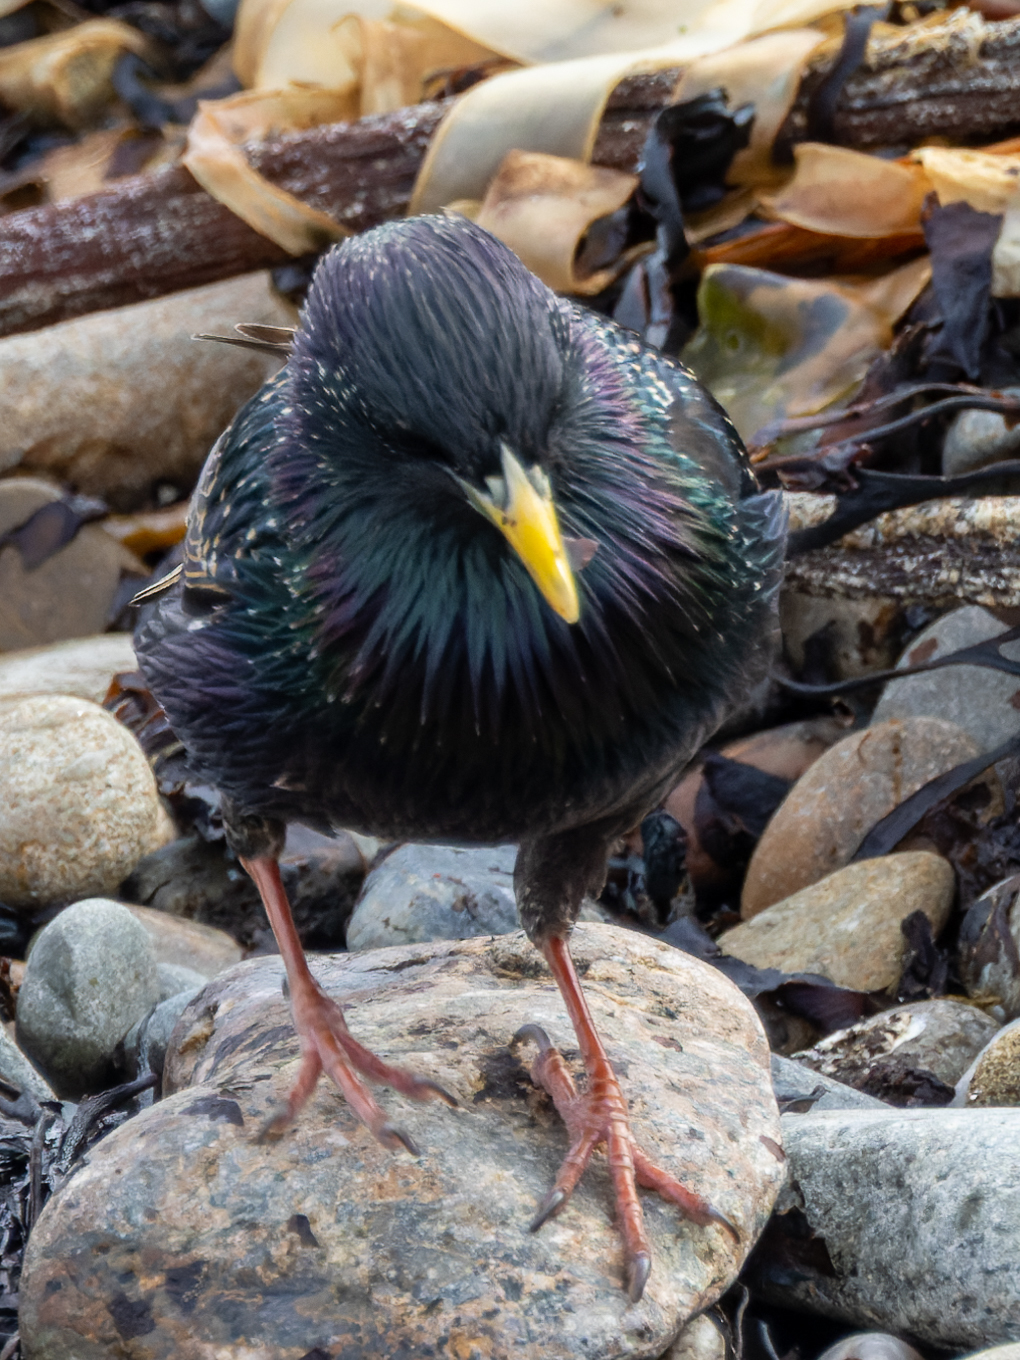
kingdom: Animalia
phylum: Chordata
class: Aves
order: Passeriformes
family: Sturnidae
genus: Sturnus
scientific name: Sturnus vulgaris
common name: Common starling
